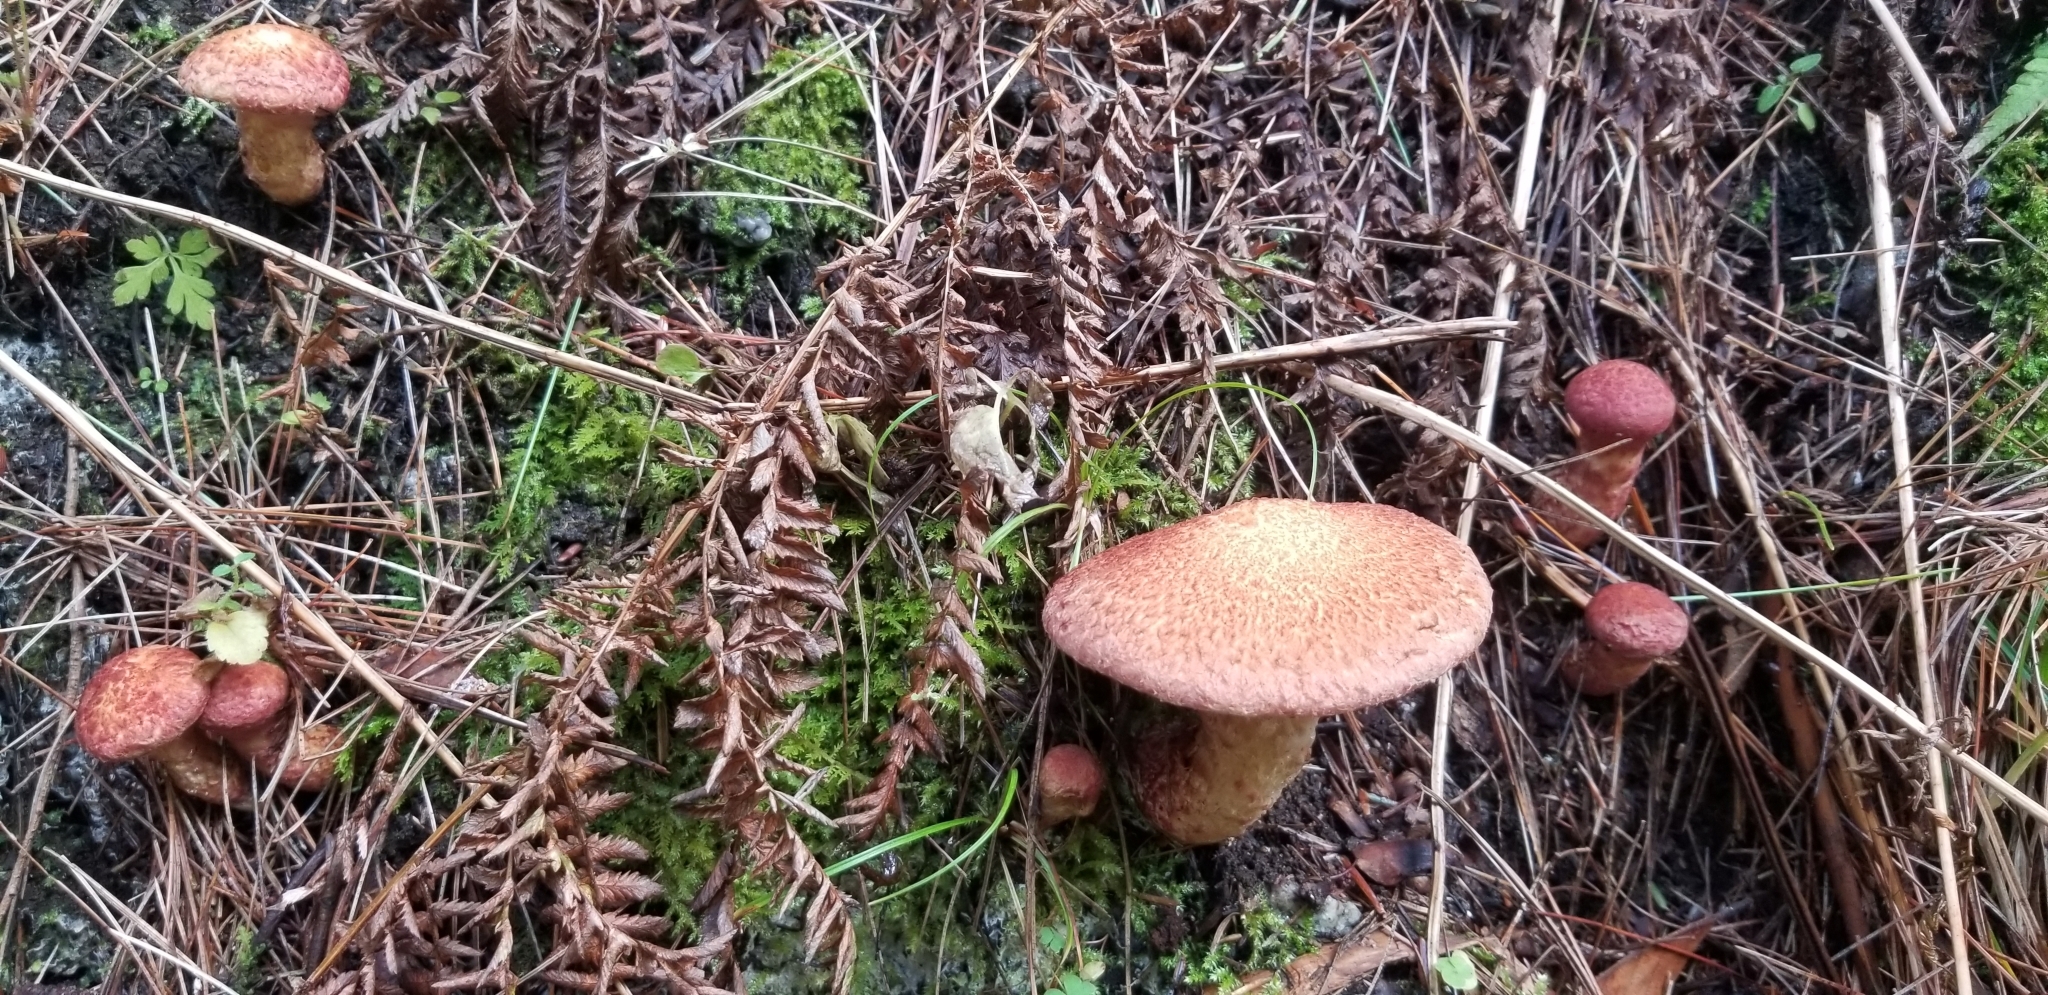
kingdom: Fungi
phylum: Basidiomycota
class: Agaricomycetes
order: Boletales
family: Suillaceae
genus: Suillus
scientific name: Suillus spraguei
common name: Painted suillus
